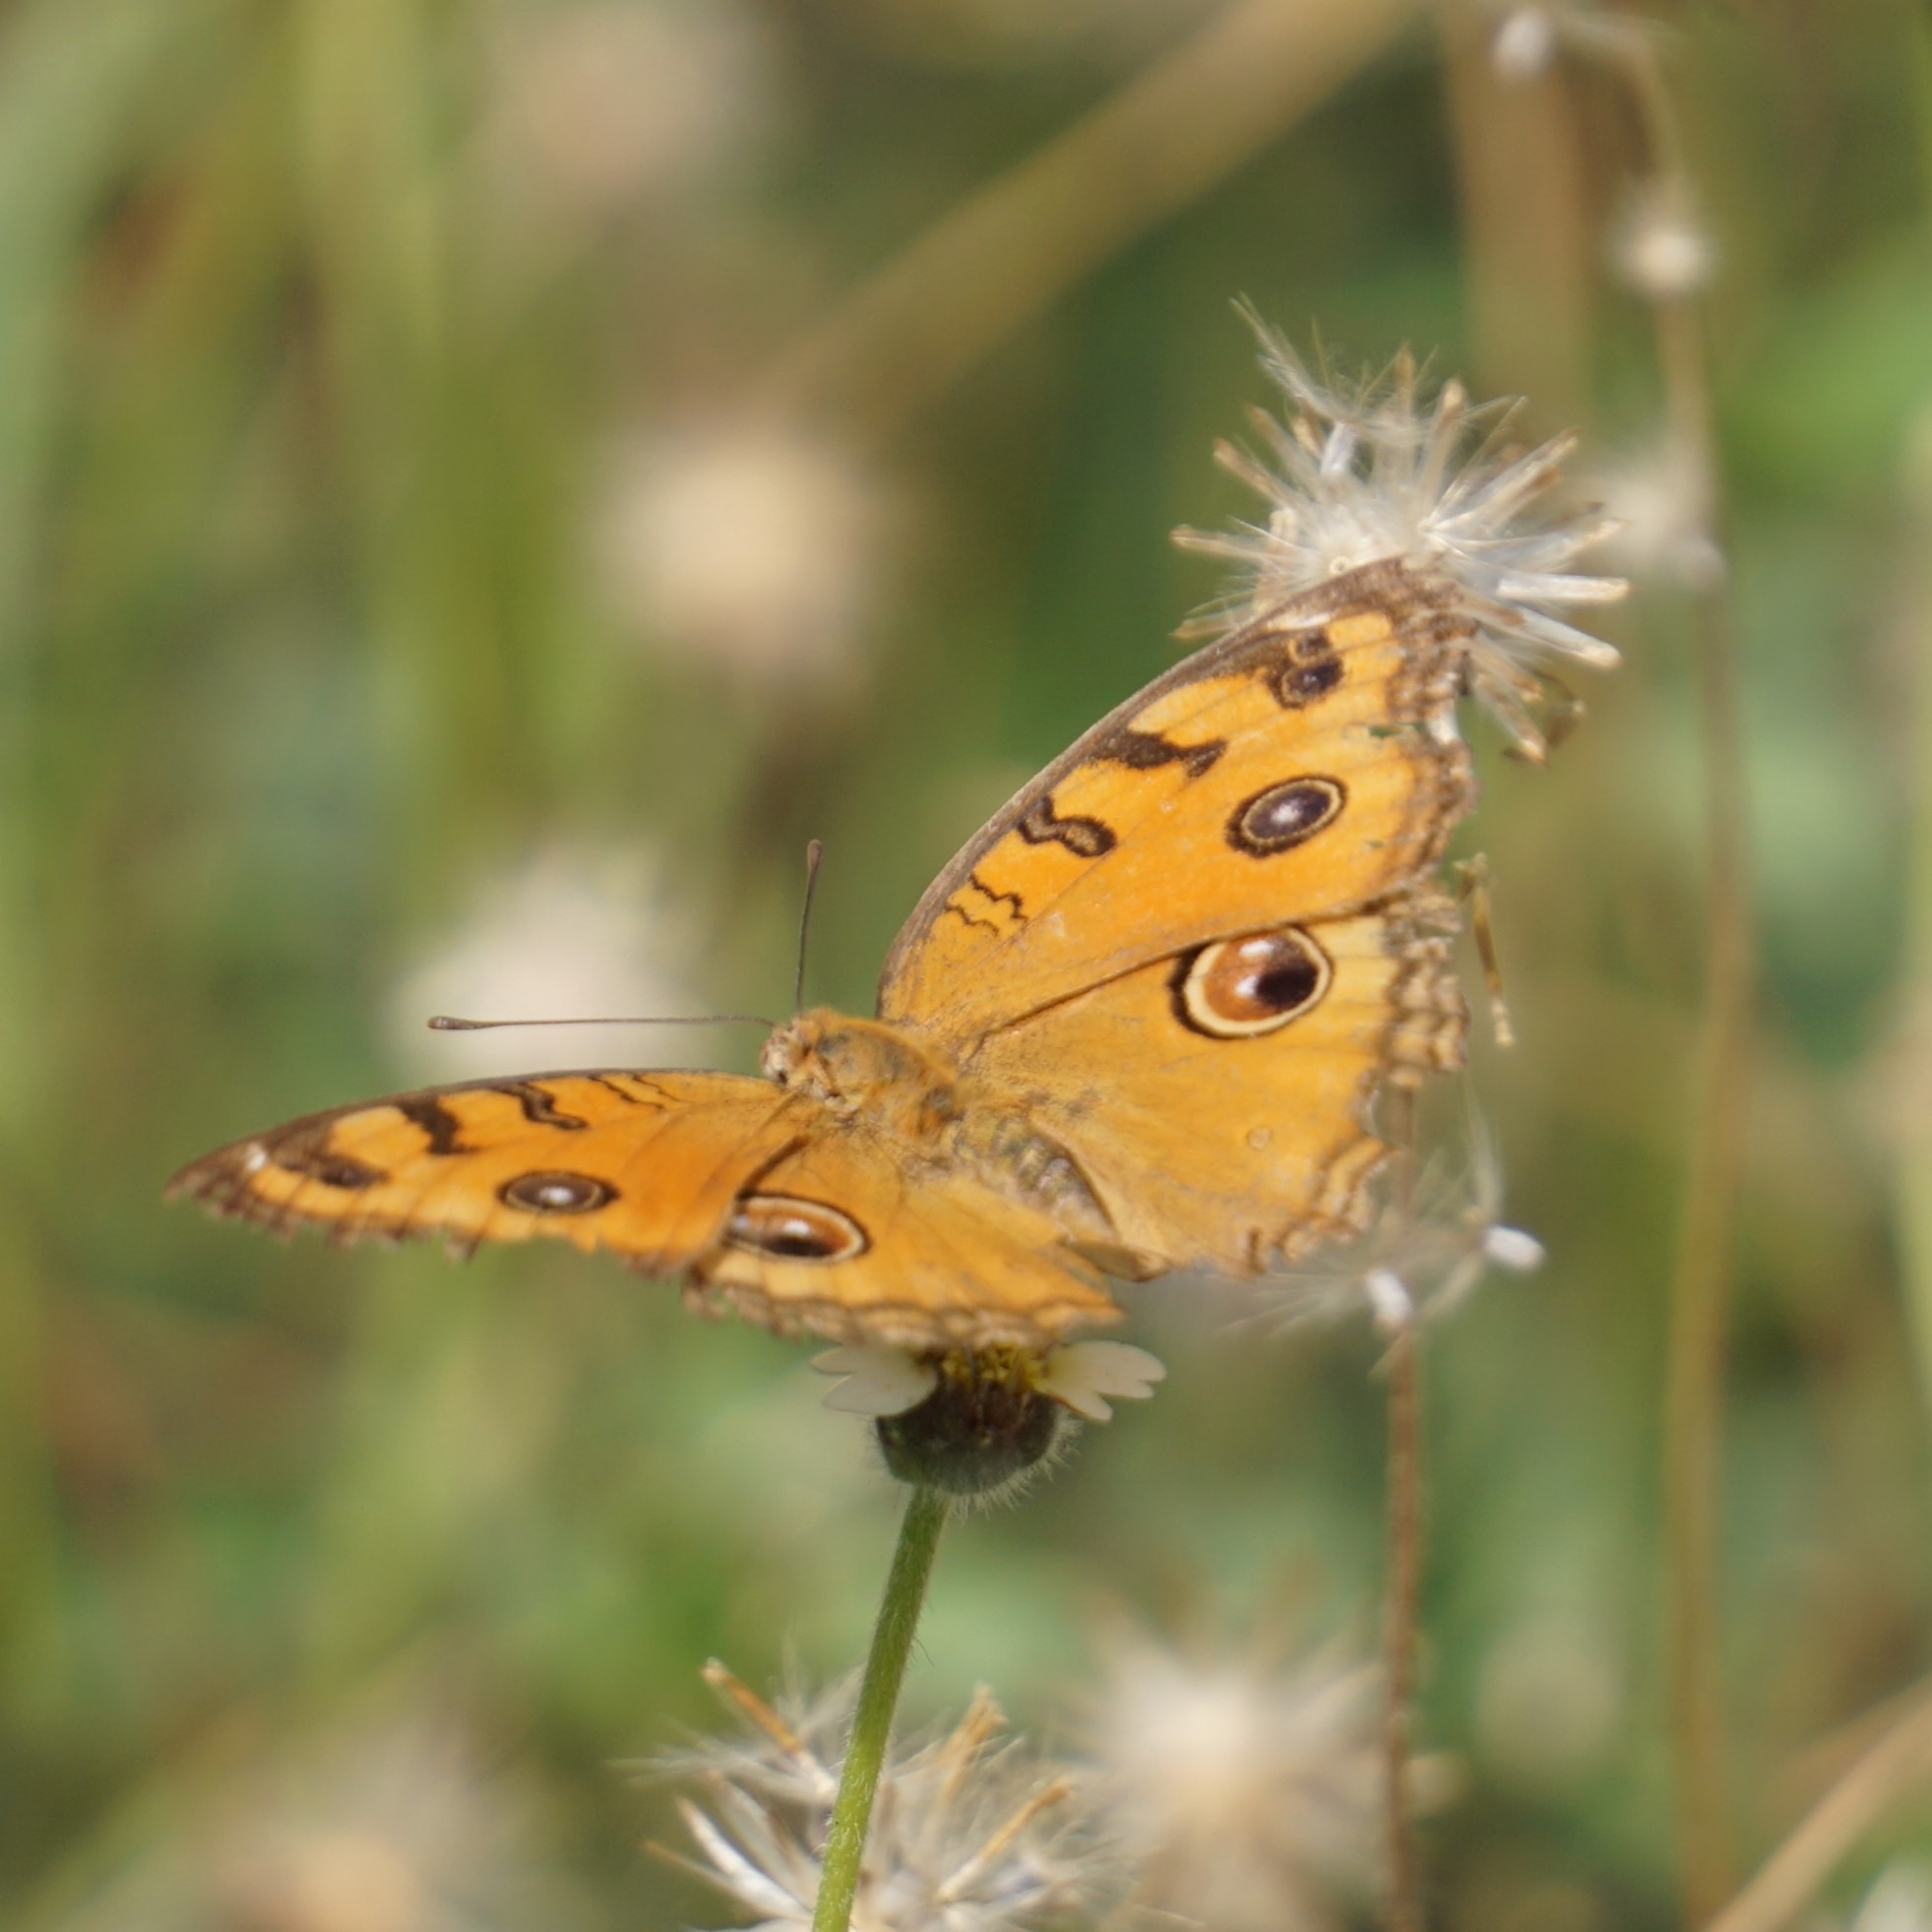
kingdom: Animalia
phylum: Arthropoda
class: Insecta
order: Lepidoptera
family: Nymphalidae
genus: Junonia
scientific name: Junonia almana
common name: Peacock pansy
